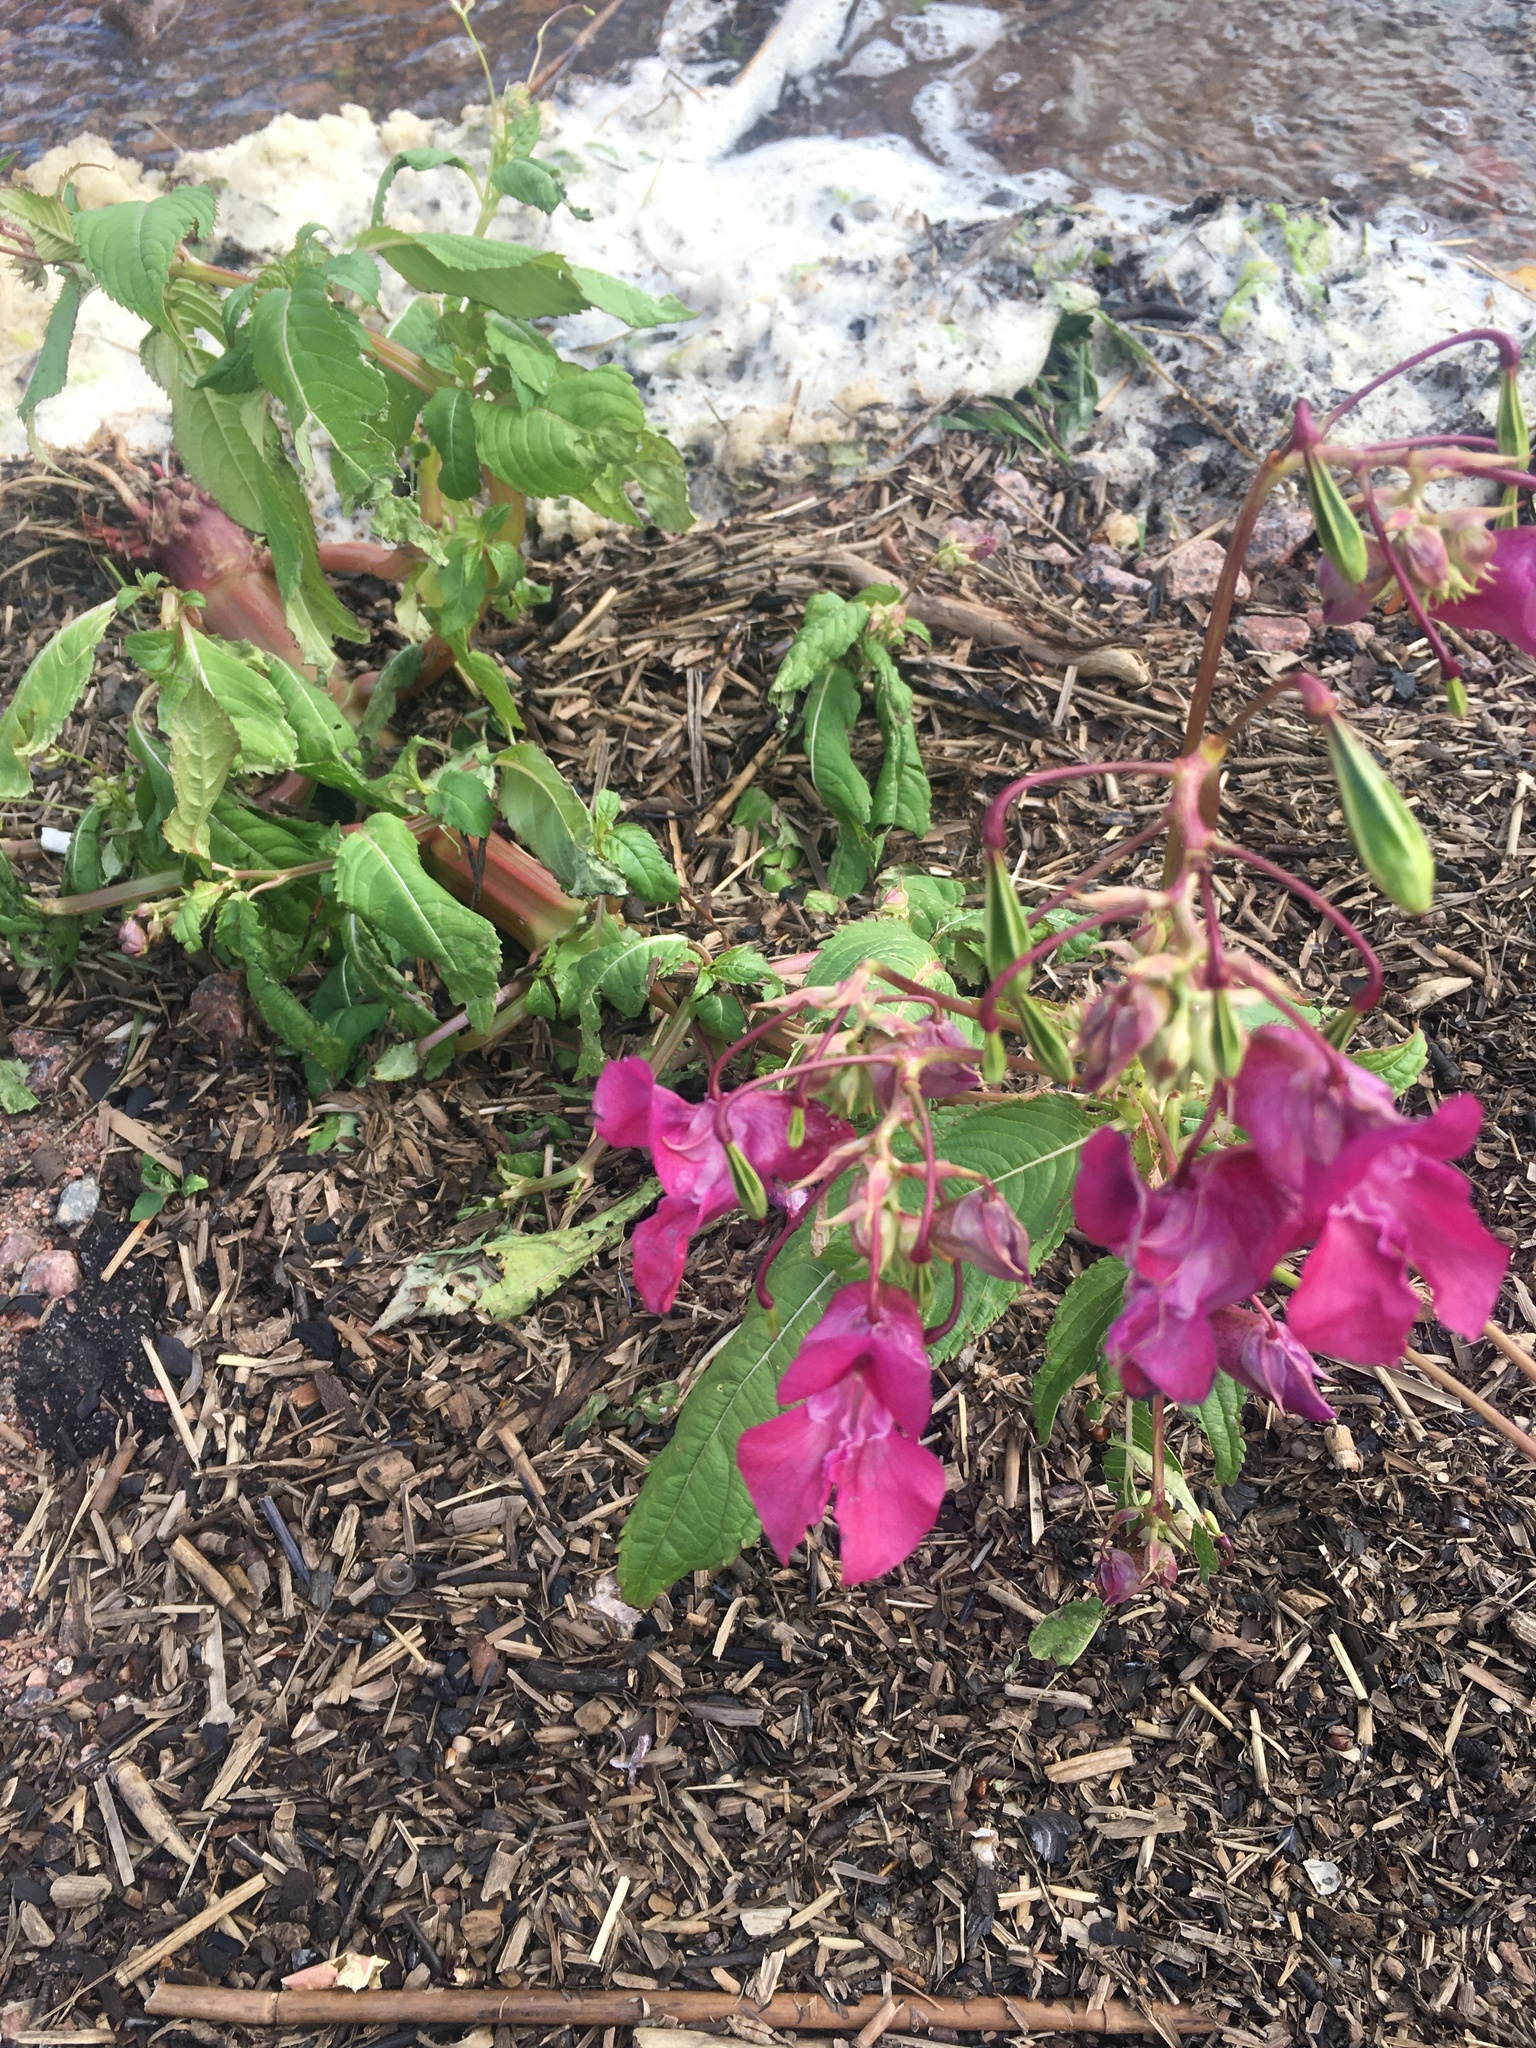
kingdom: Plantae
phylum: Tracheophyta
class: Magnoliopsida
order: Ericales
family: Balsaminaceae
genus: Impatiens
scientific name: Impatiens glandulifera
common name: Himalayan balsam
